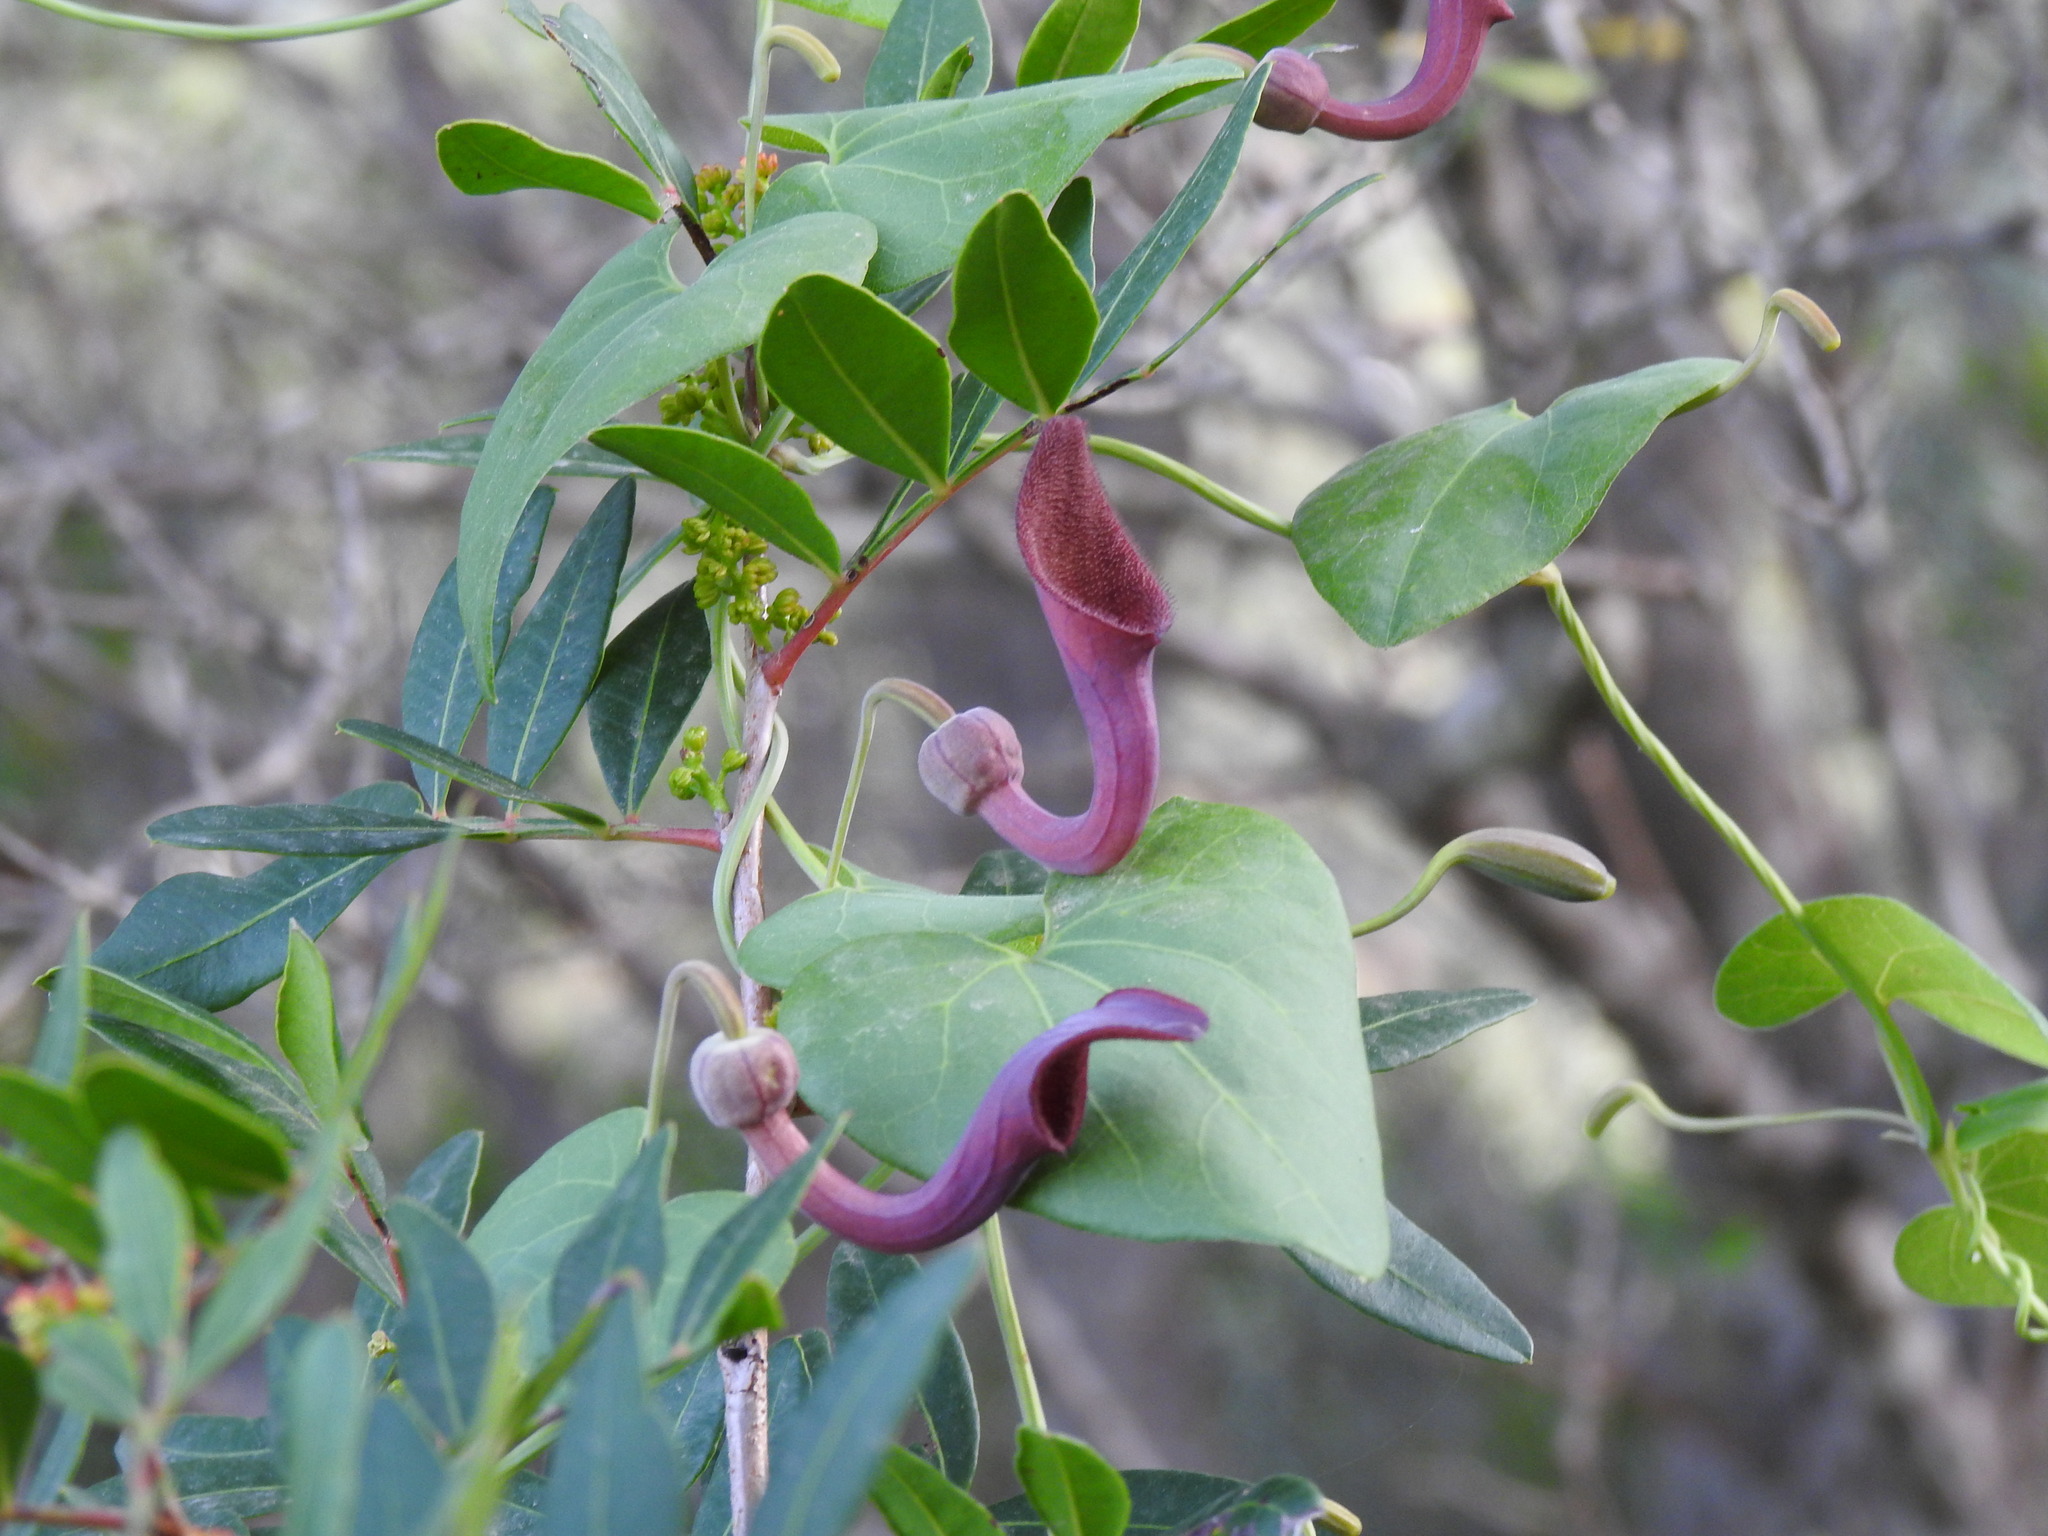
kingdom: Plantae
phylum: Tracheophyta
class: Magnoliopsida
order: Piperales
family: Aristolochiaceae
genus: Aristolochia
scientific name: Aristolochia baetica
